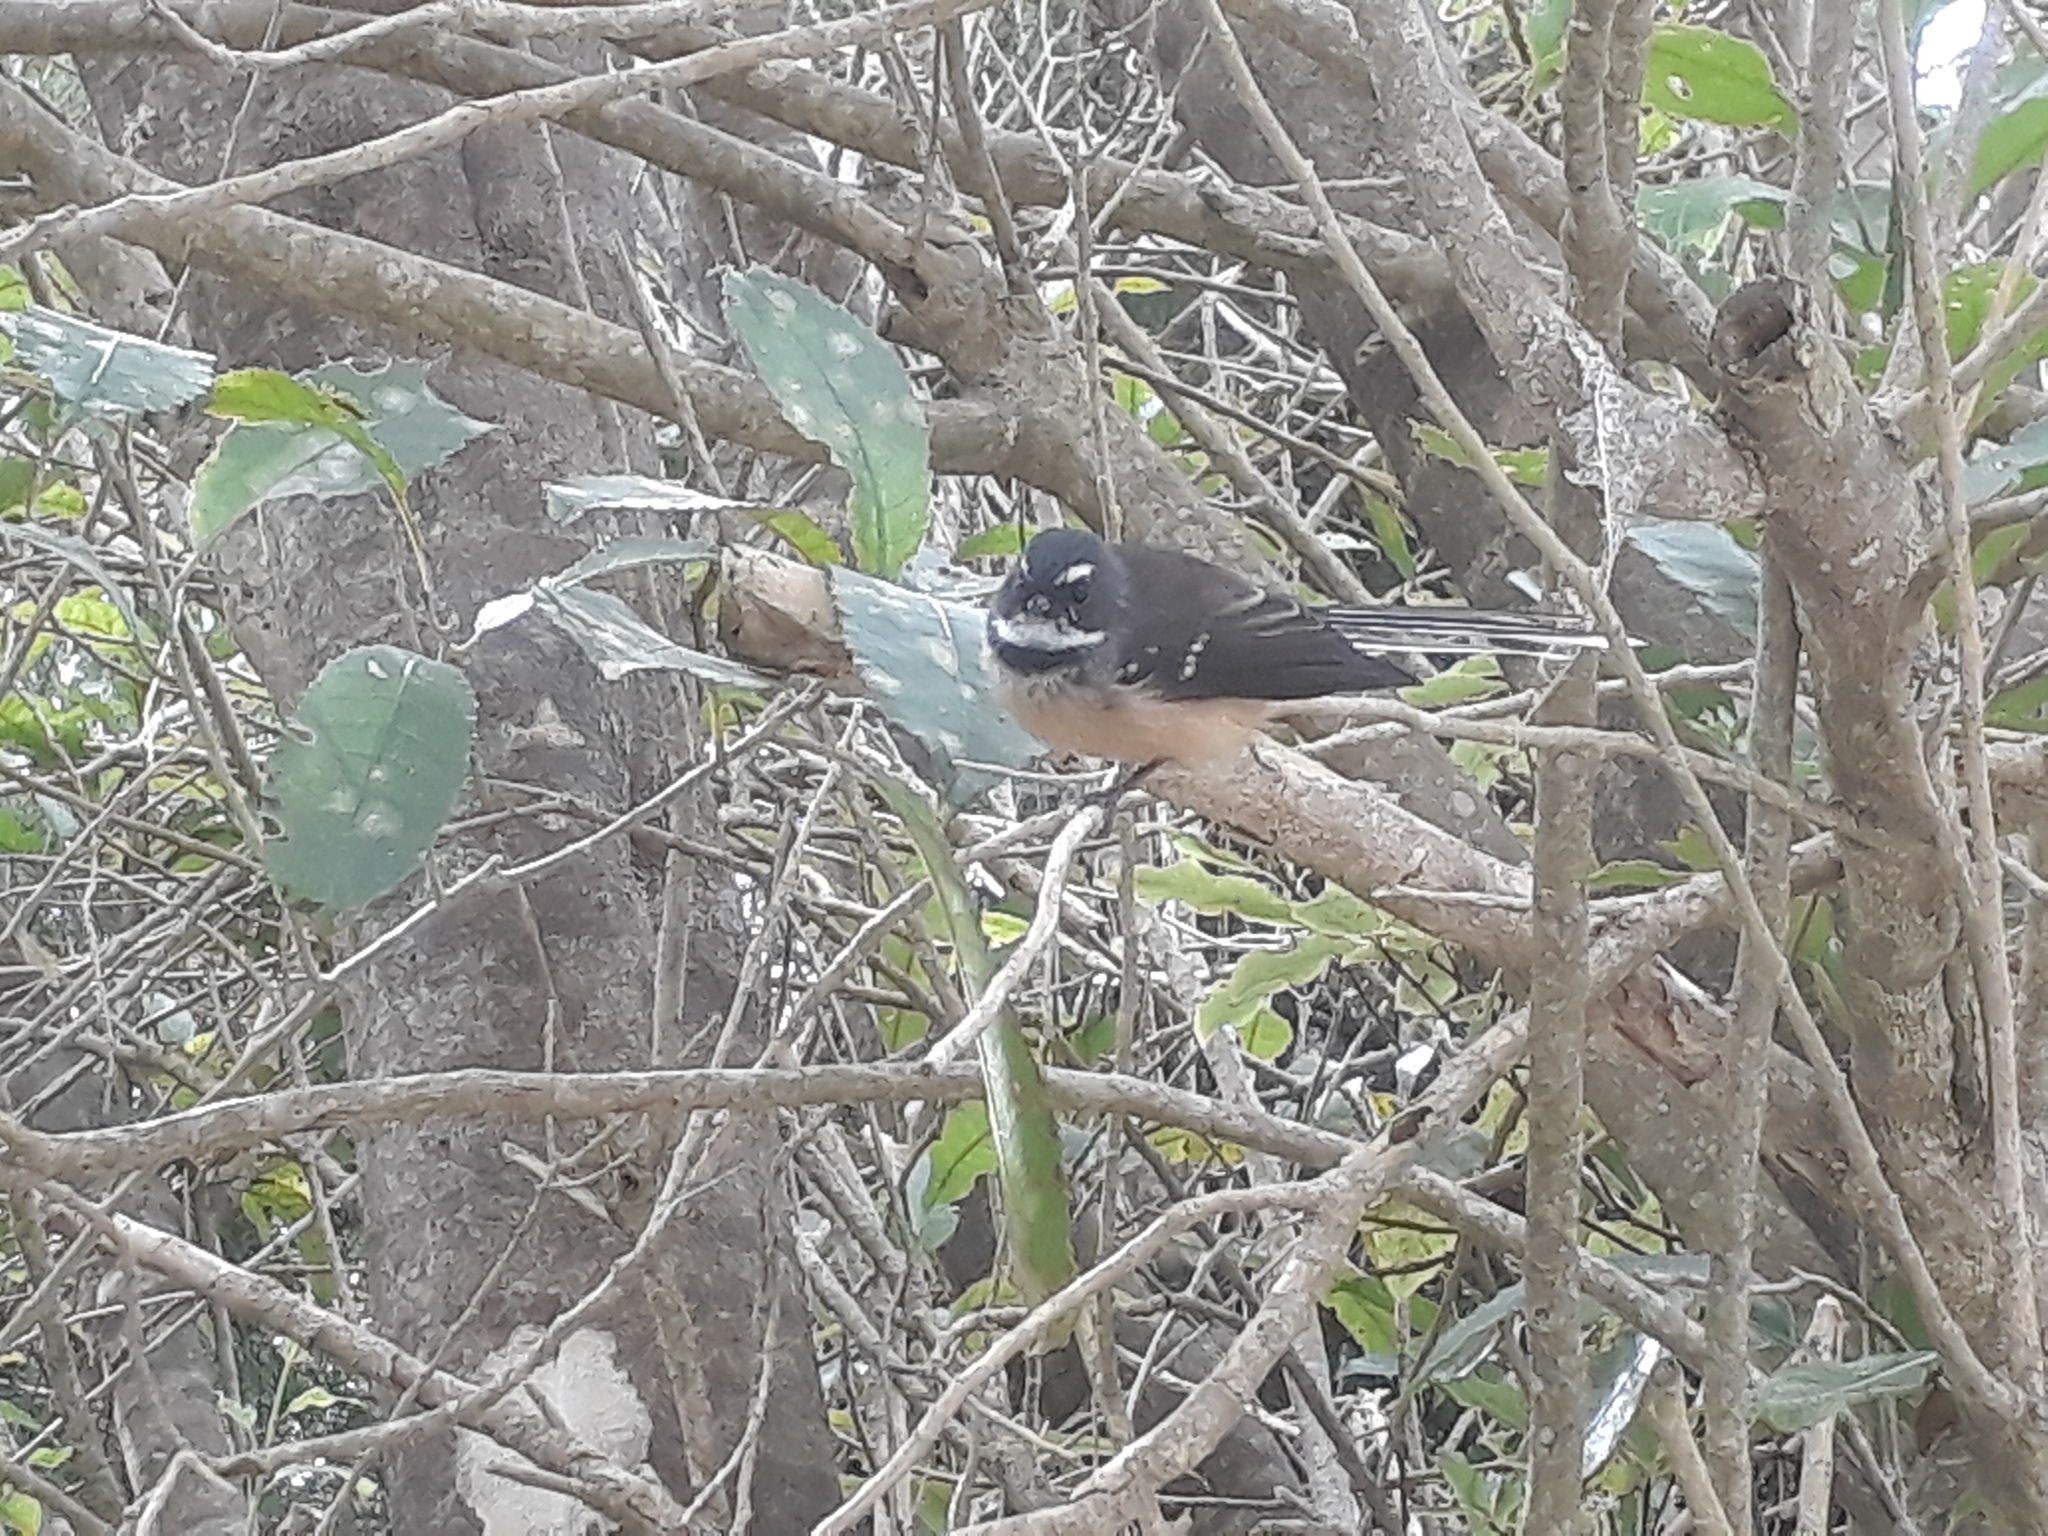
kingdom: Animalia
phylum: Chordata
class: Aves
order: Passeriformes
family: Rhipiduridae
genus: Rhipidura
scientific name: Rhipidura fuliginosa
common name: New zealand fantail
